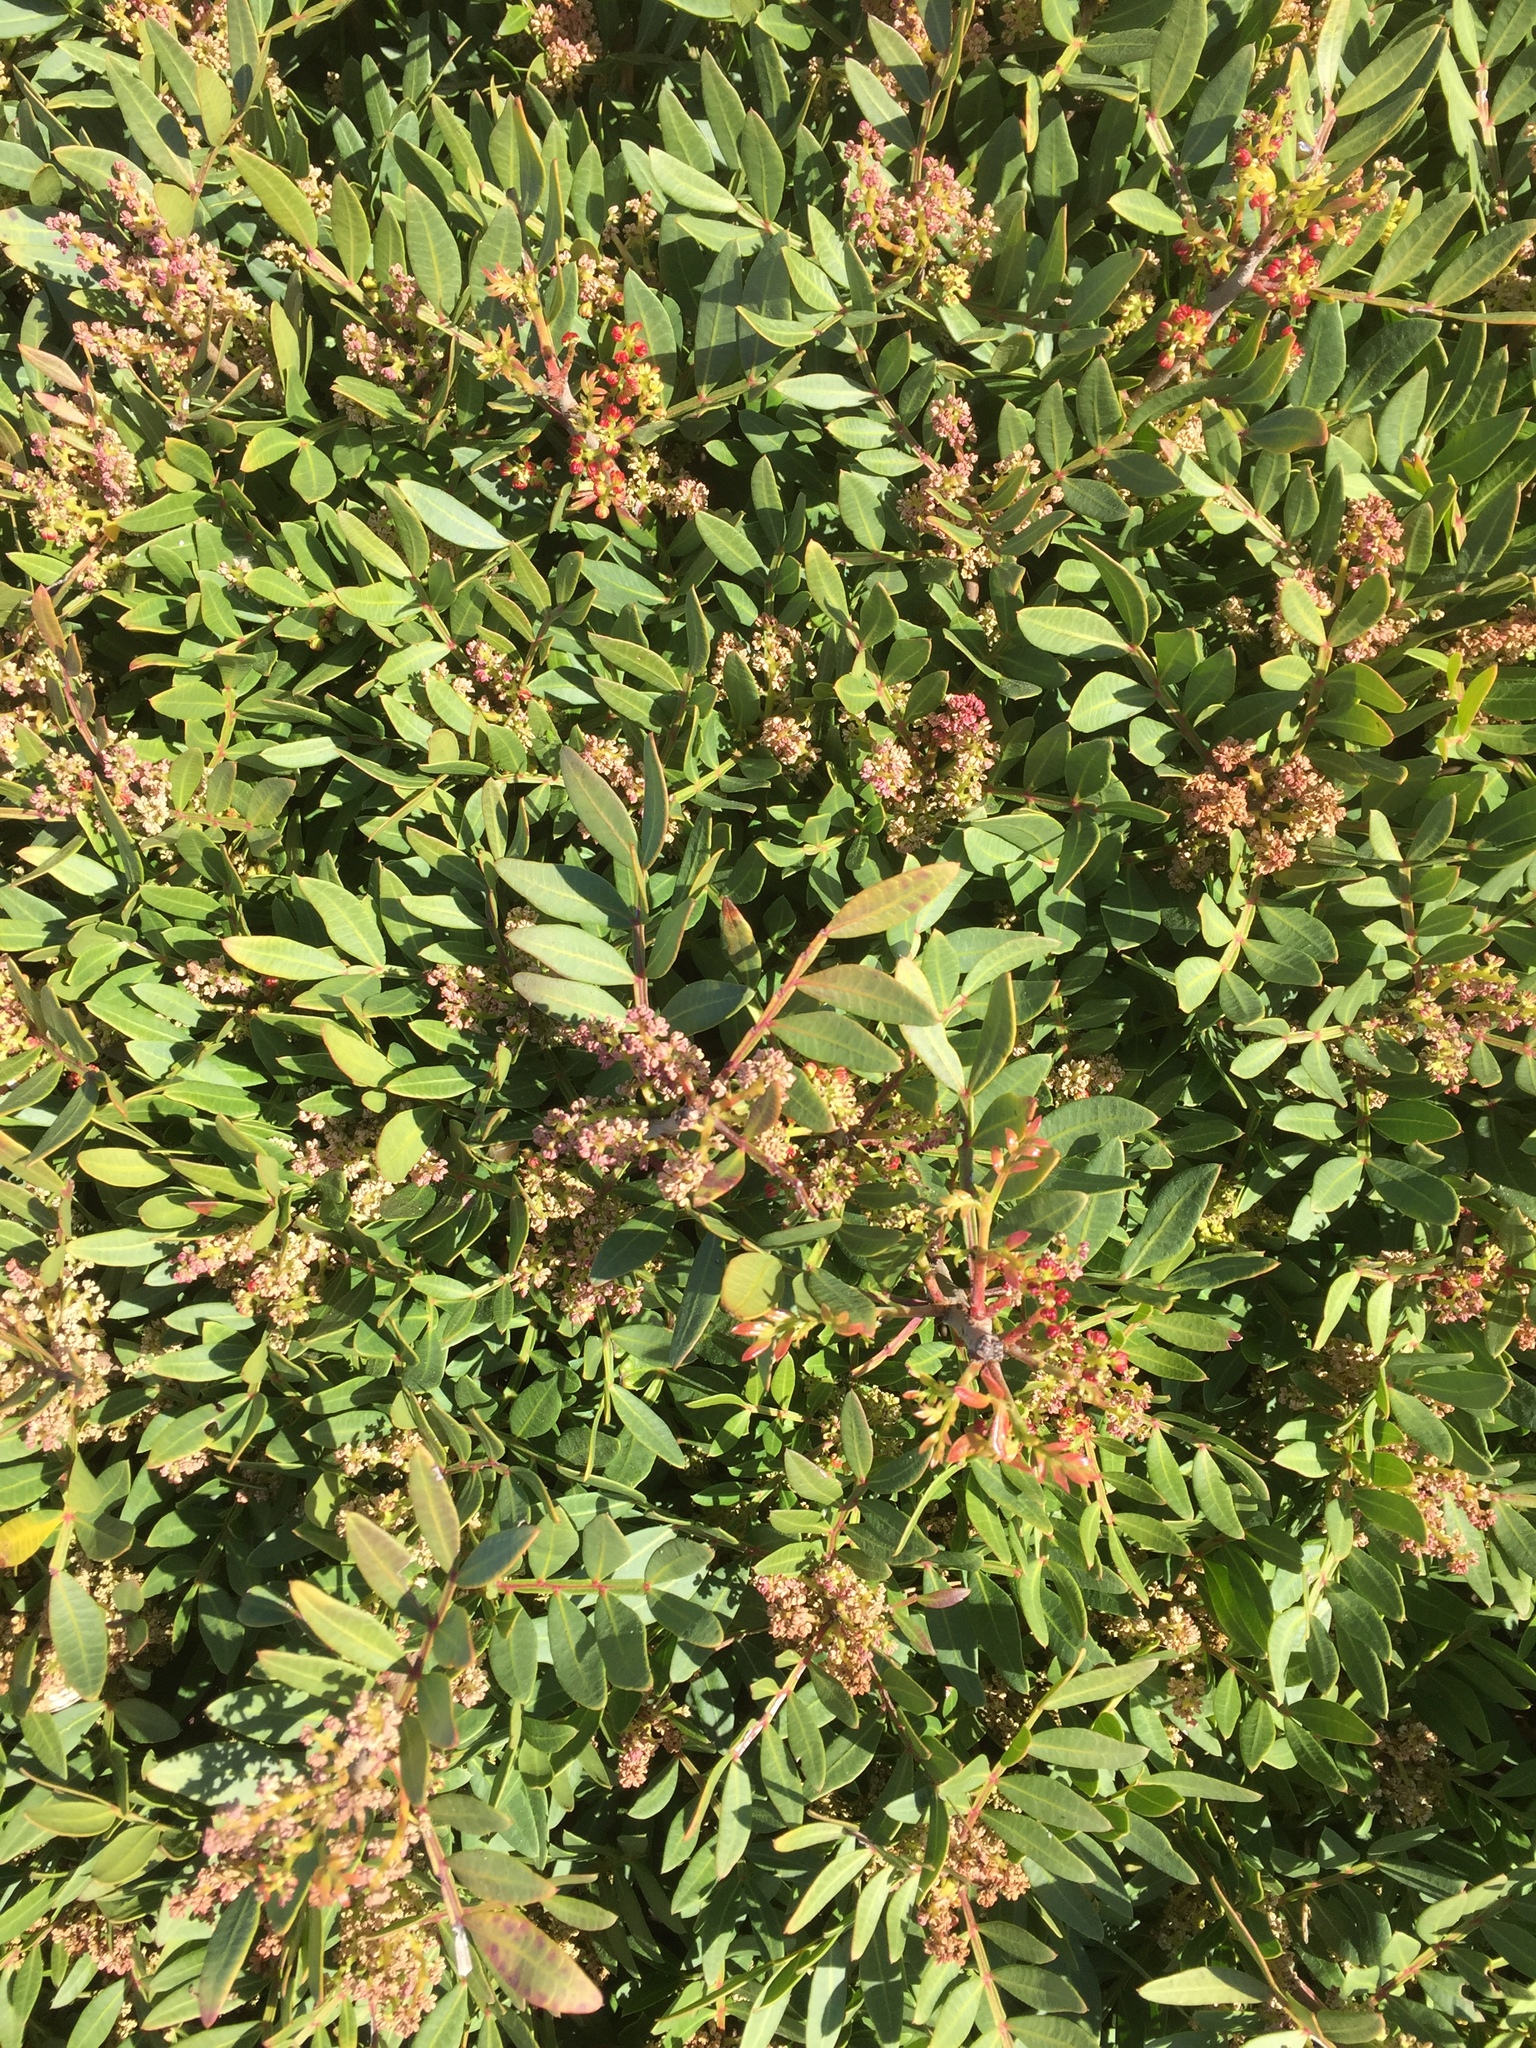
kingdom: Plantae
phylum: Tracheophyta
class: Magnoliopsida
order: Sapindales
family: Anacardiaceae
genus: Pistacia
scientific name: Pistacia lentiscus
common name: Lentisk
